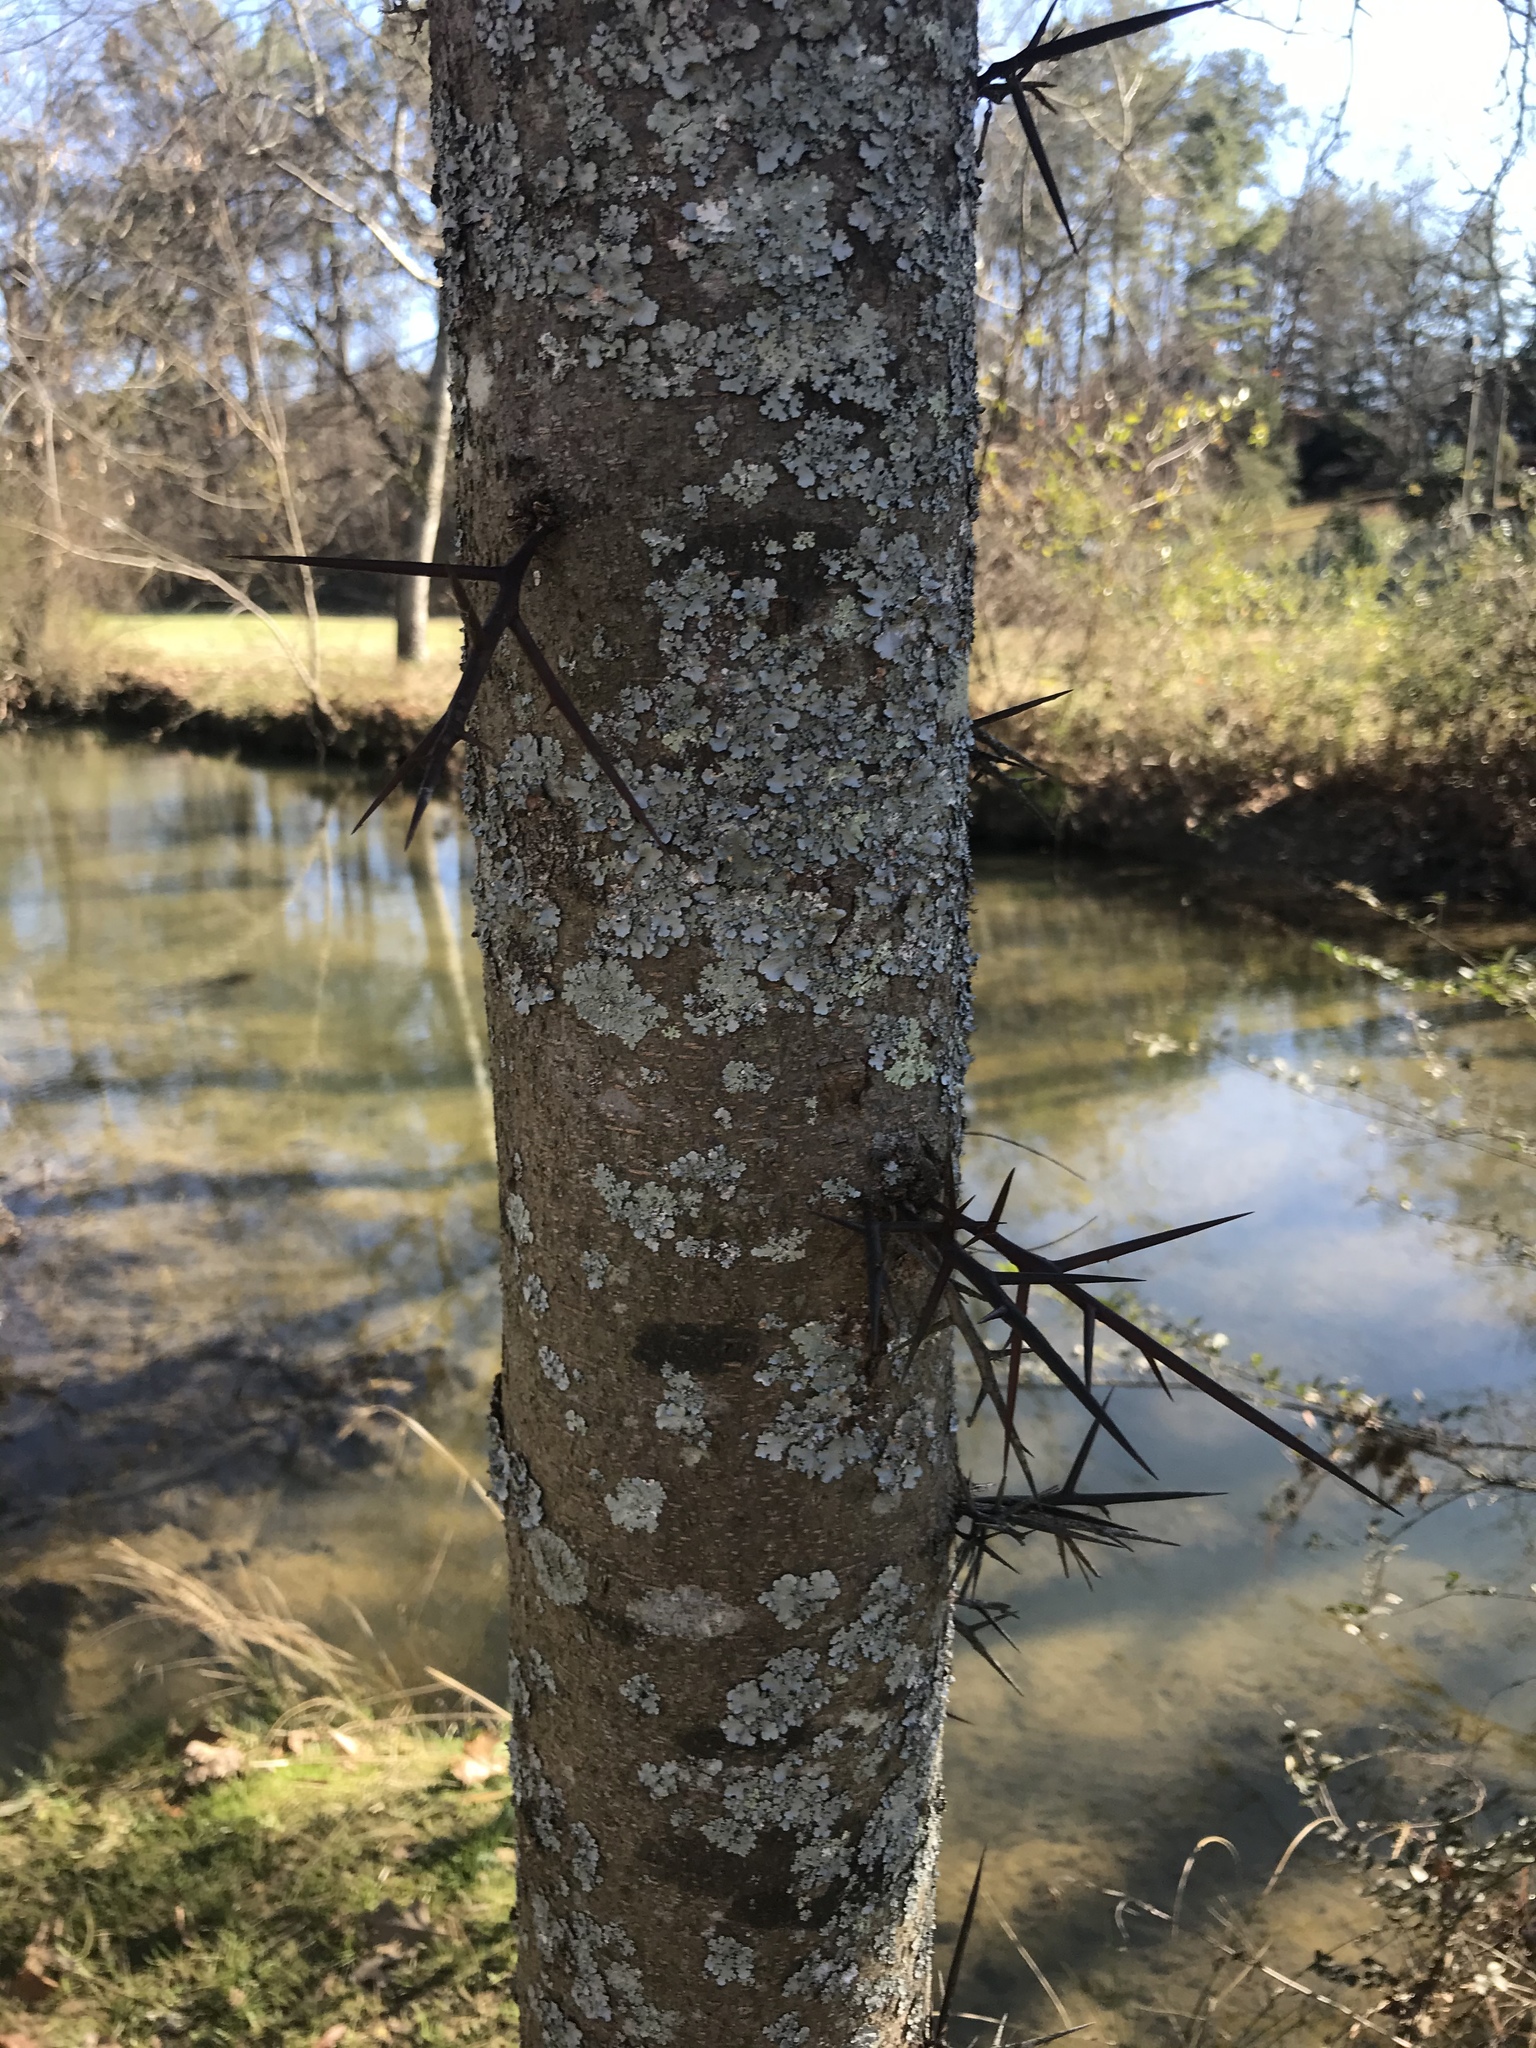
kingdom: Plantae
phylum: Tracheophyta
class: Magnoliopsida
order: Fabales
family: Fabaceae
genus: Gleditsia
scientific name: Gleditsia triacanthos
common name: Common honeylocust
